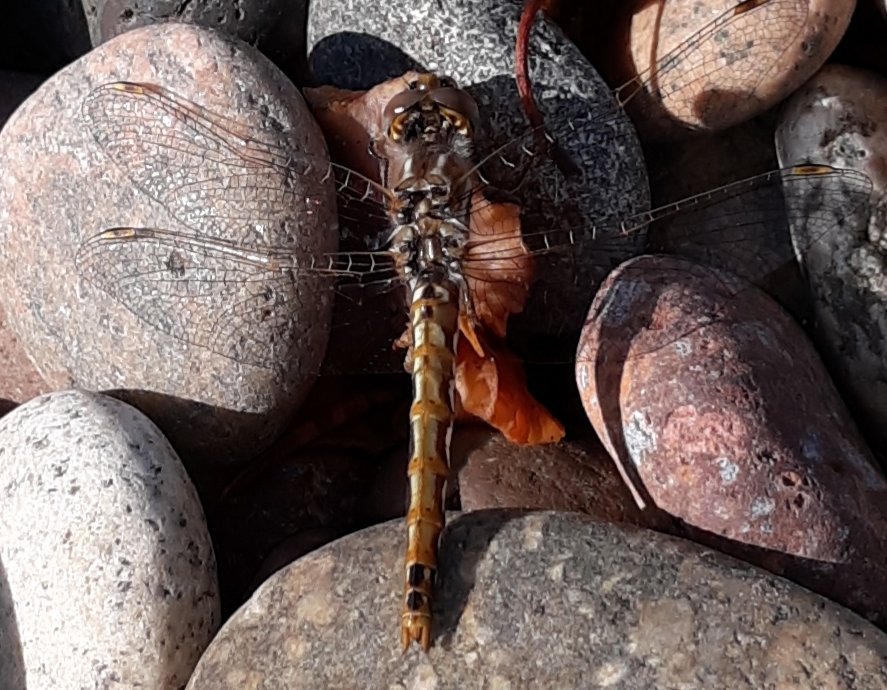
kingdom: Animalia
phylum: Arthropoda
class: Insecta
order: Odonata
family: Libellulidae
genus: Sympetrum
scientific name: Sympetrum corruptum
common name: Variegated meadowhawk
